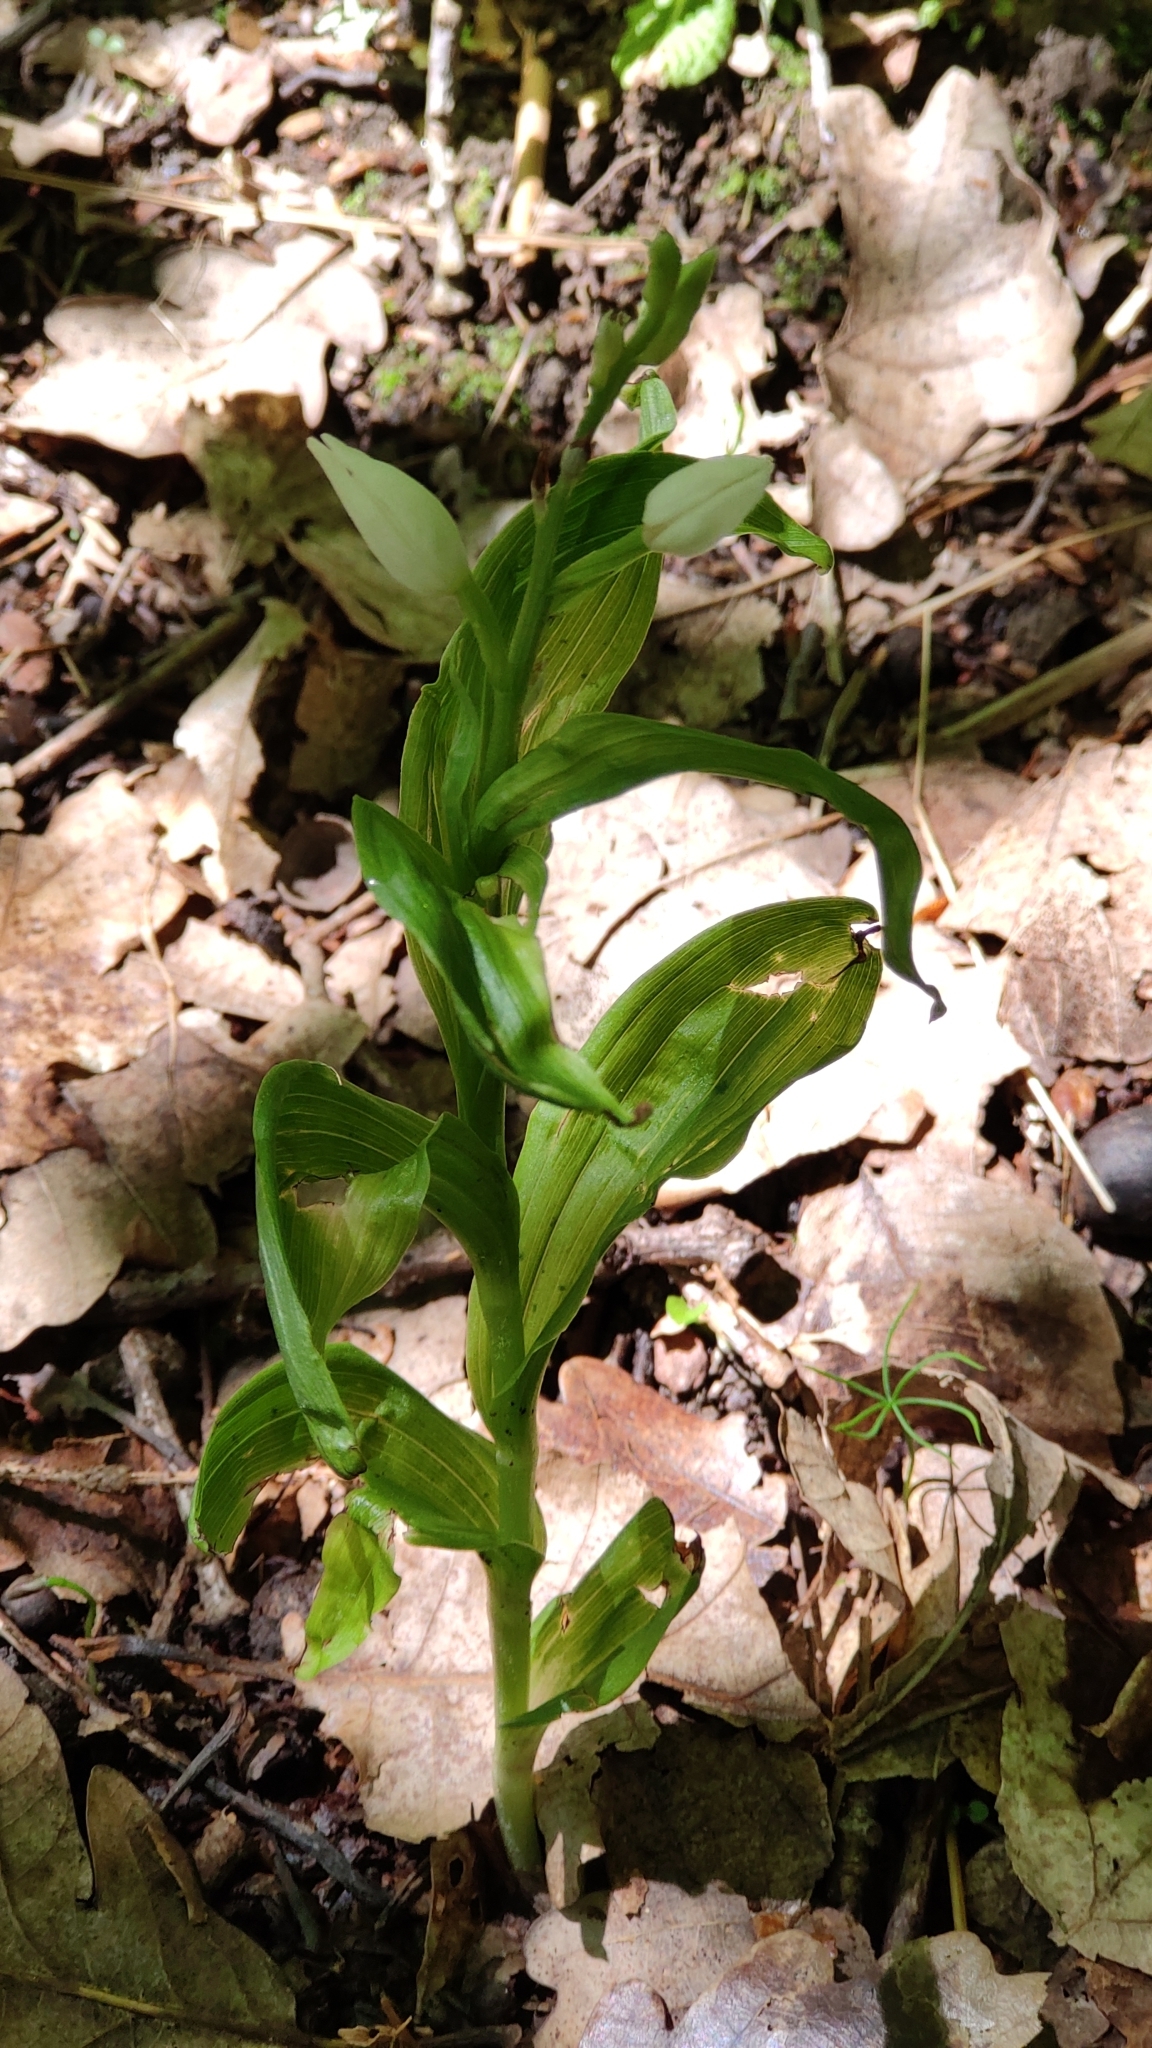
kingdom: Plantae
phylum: Tracheophyta
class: Liliopsida
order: Asparagales
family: Orchidaceae
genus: Cephalanthera
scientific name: Cephalanthera longifolia
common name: Narrow-leaved helleborine
